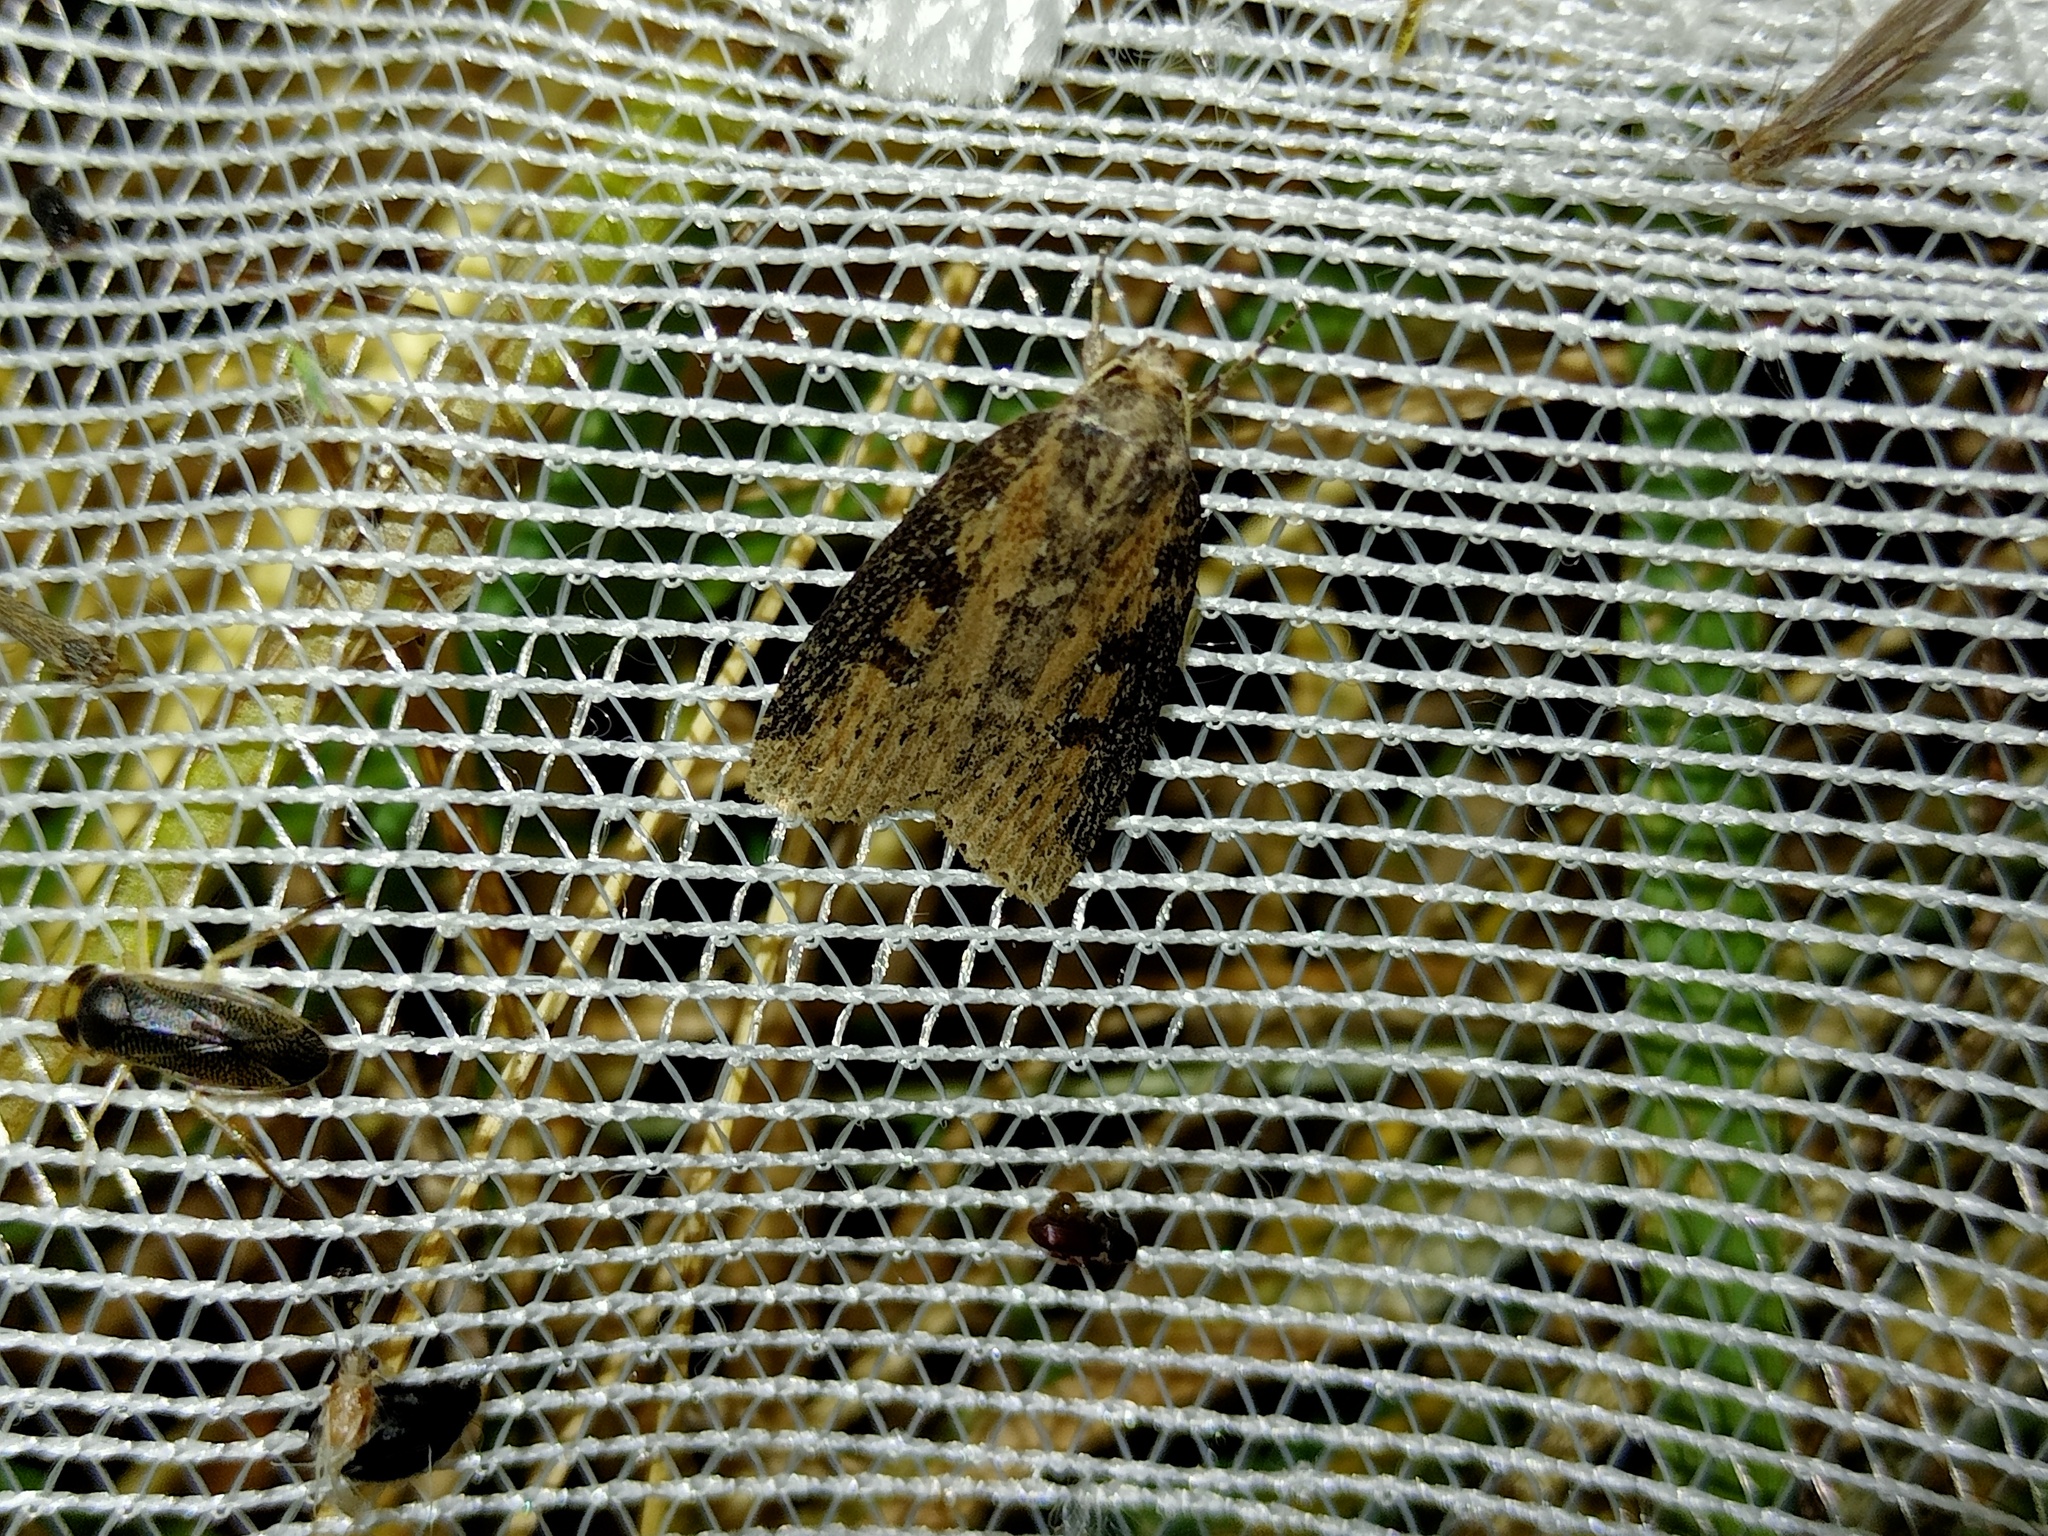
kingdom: Animalia
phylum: Arthropoda
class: Insecta
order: Lepidoptera
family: Noctuidae
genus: Chilodes
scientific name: Chilodes maritima
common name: Silky wainscot
